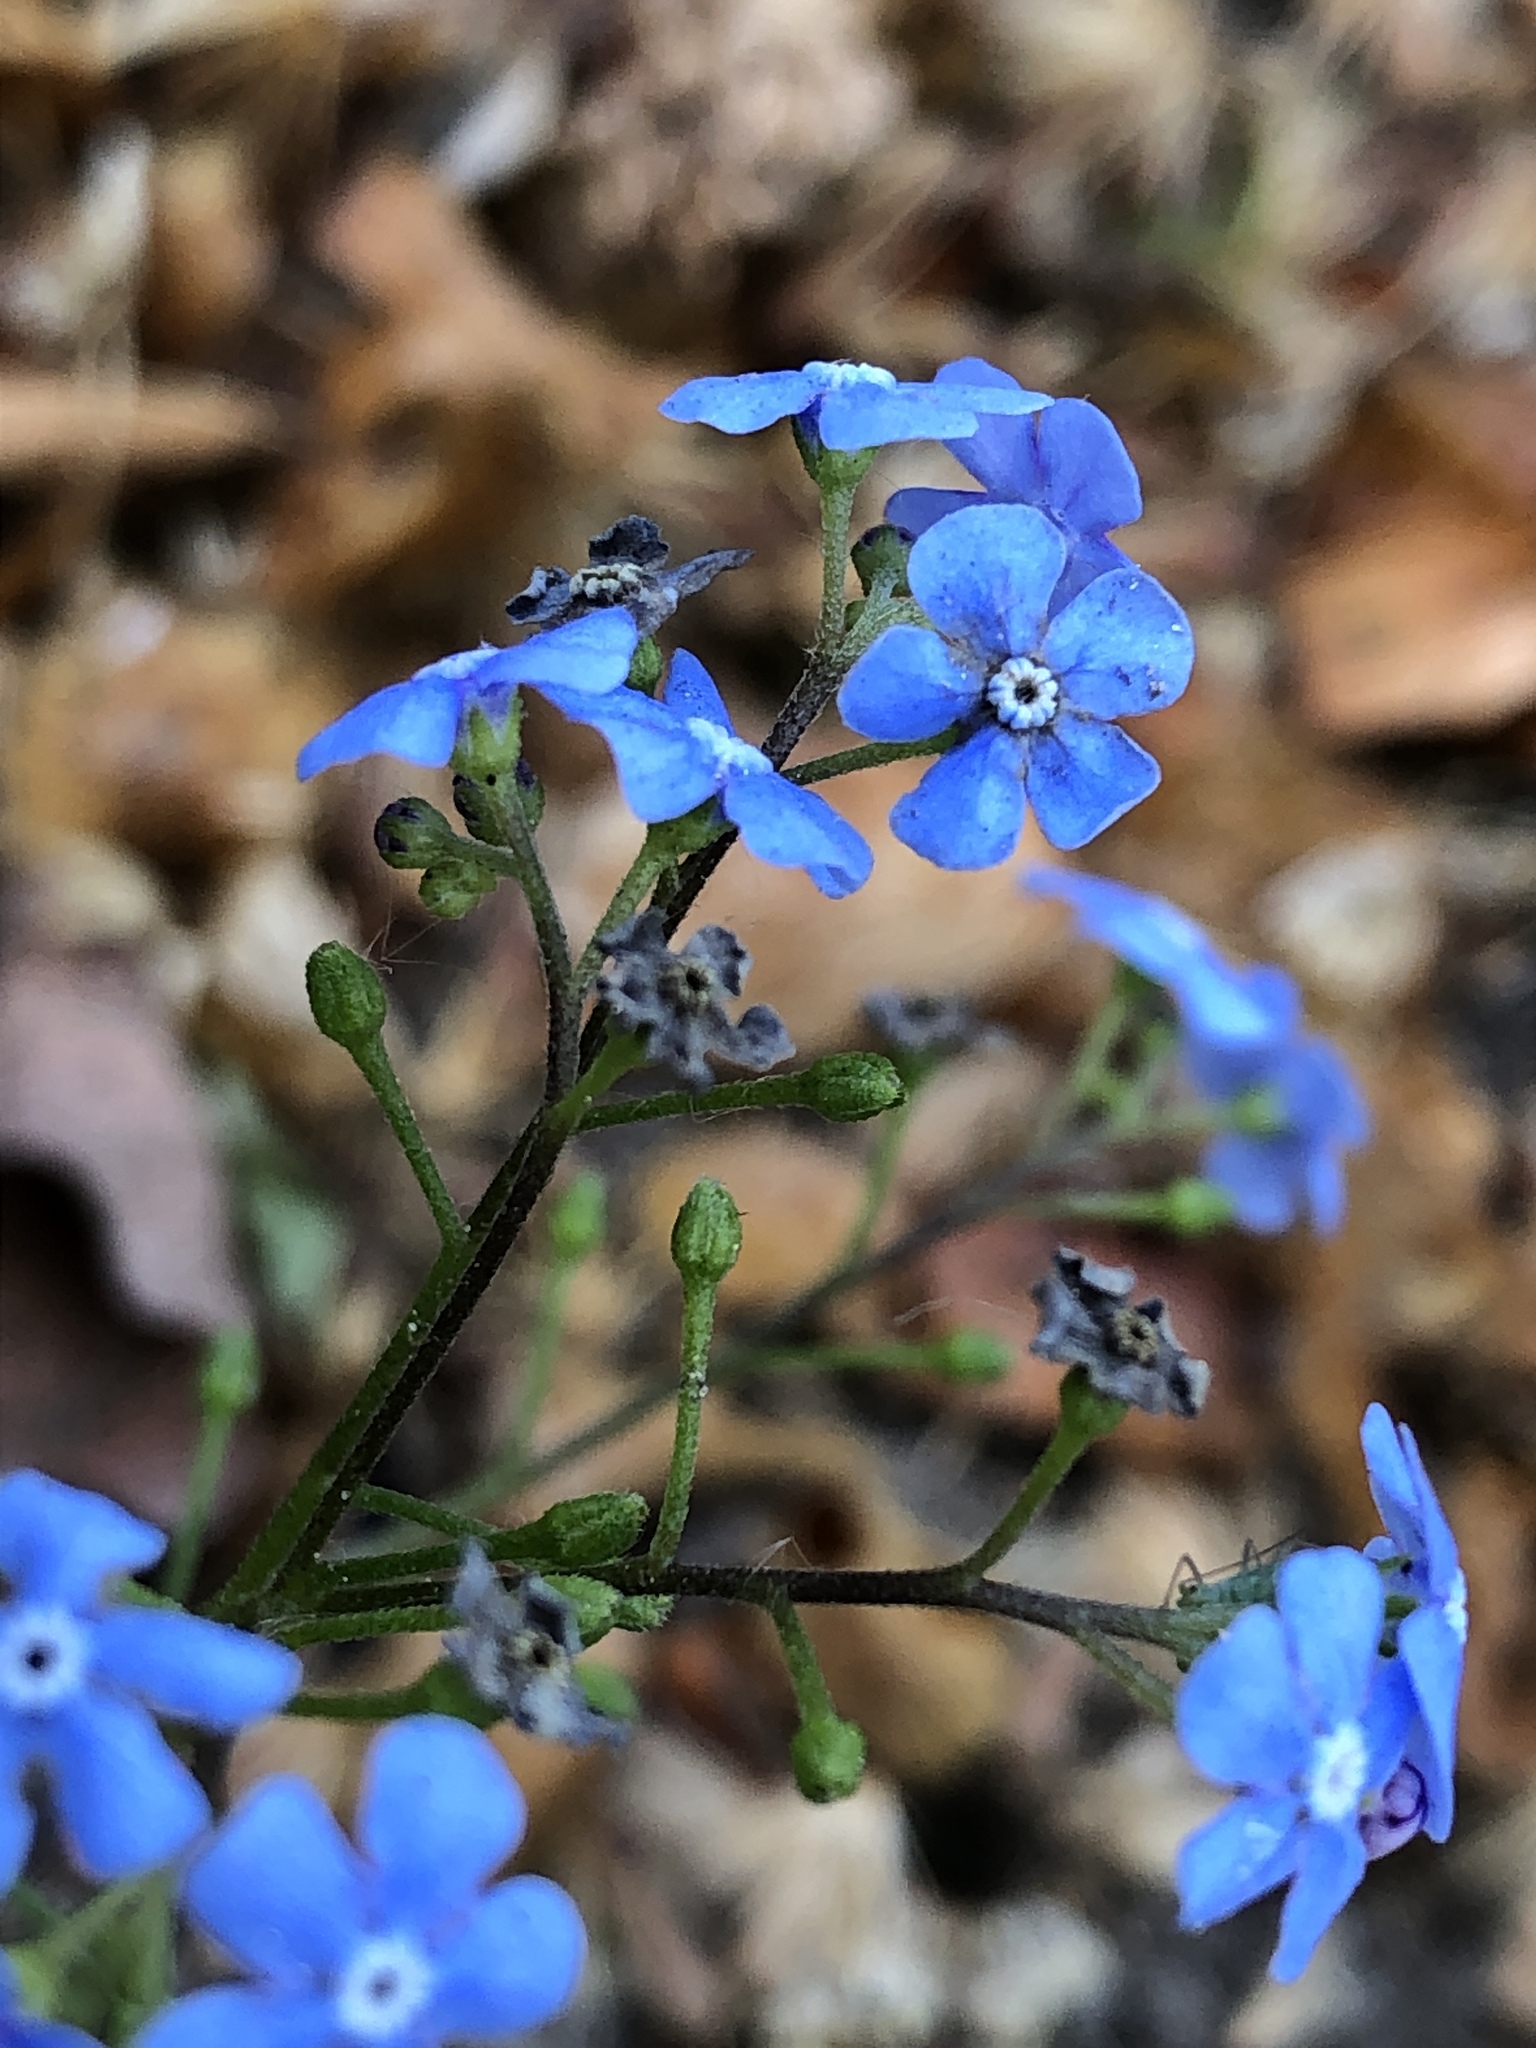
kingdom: Plantae
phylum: Tracheophyta
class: Magnoliopsida
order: Boraginales
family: Boraginaceae
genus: Brunnera
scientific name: Brunnera macrophylla
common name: Great forget-me-not
